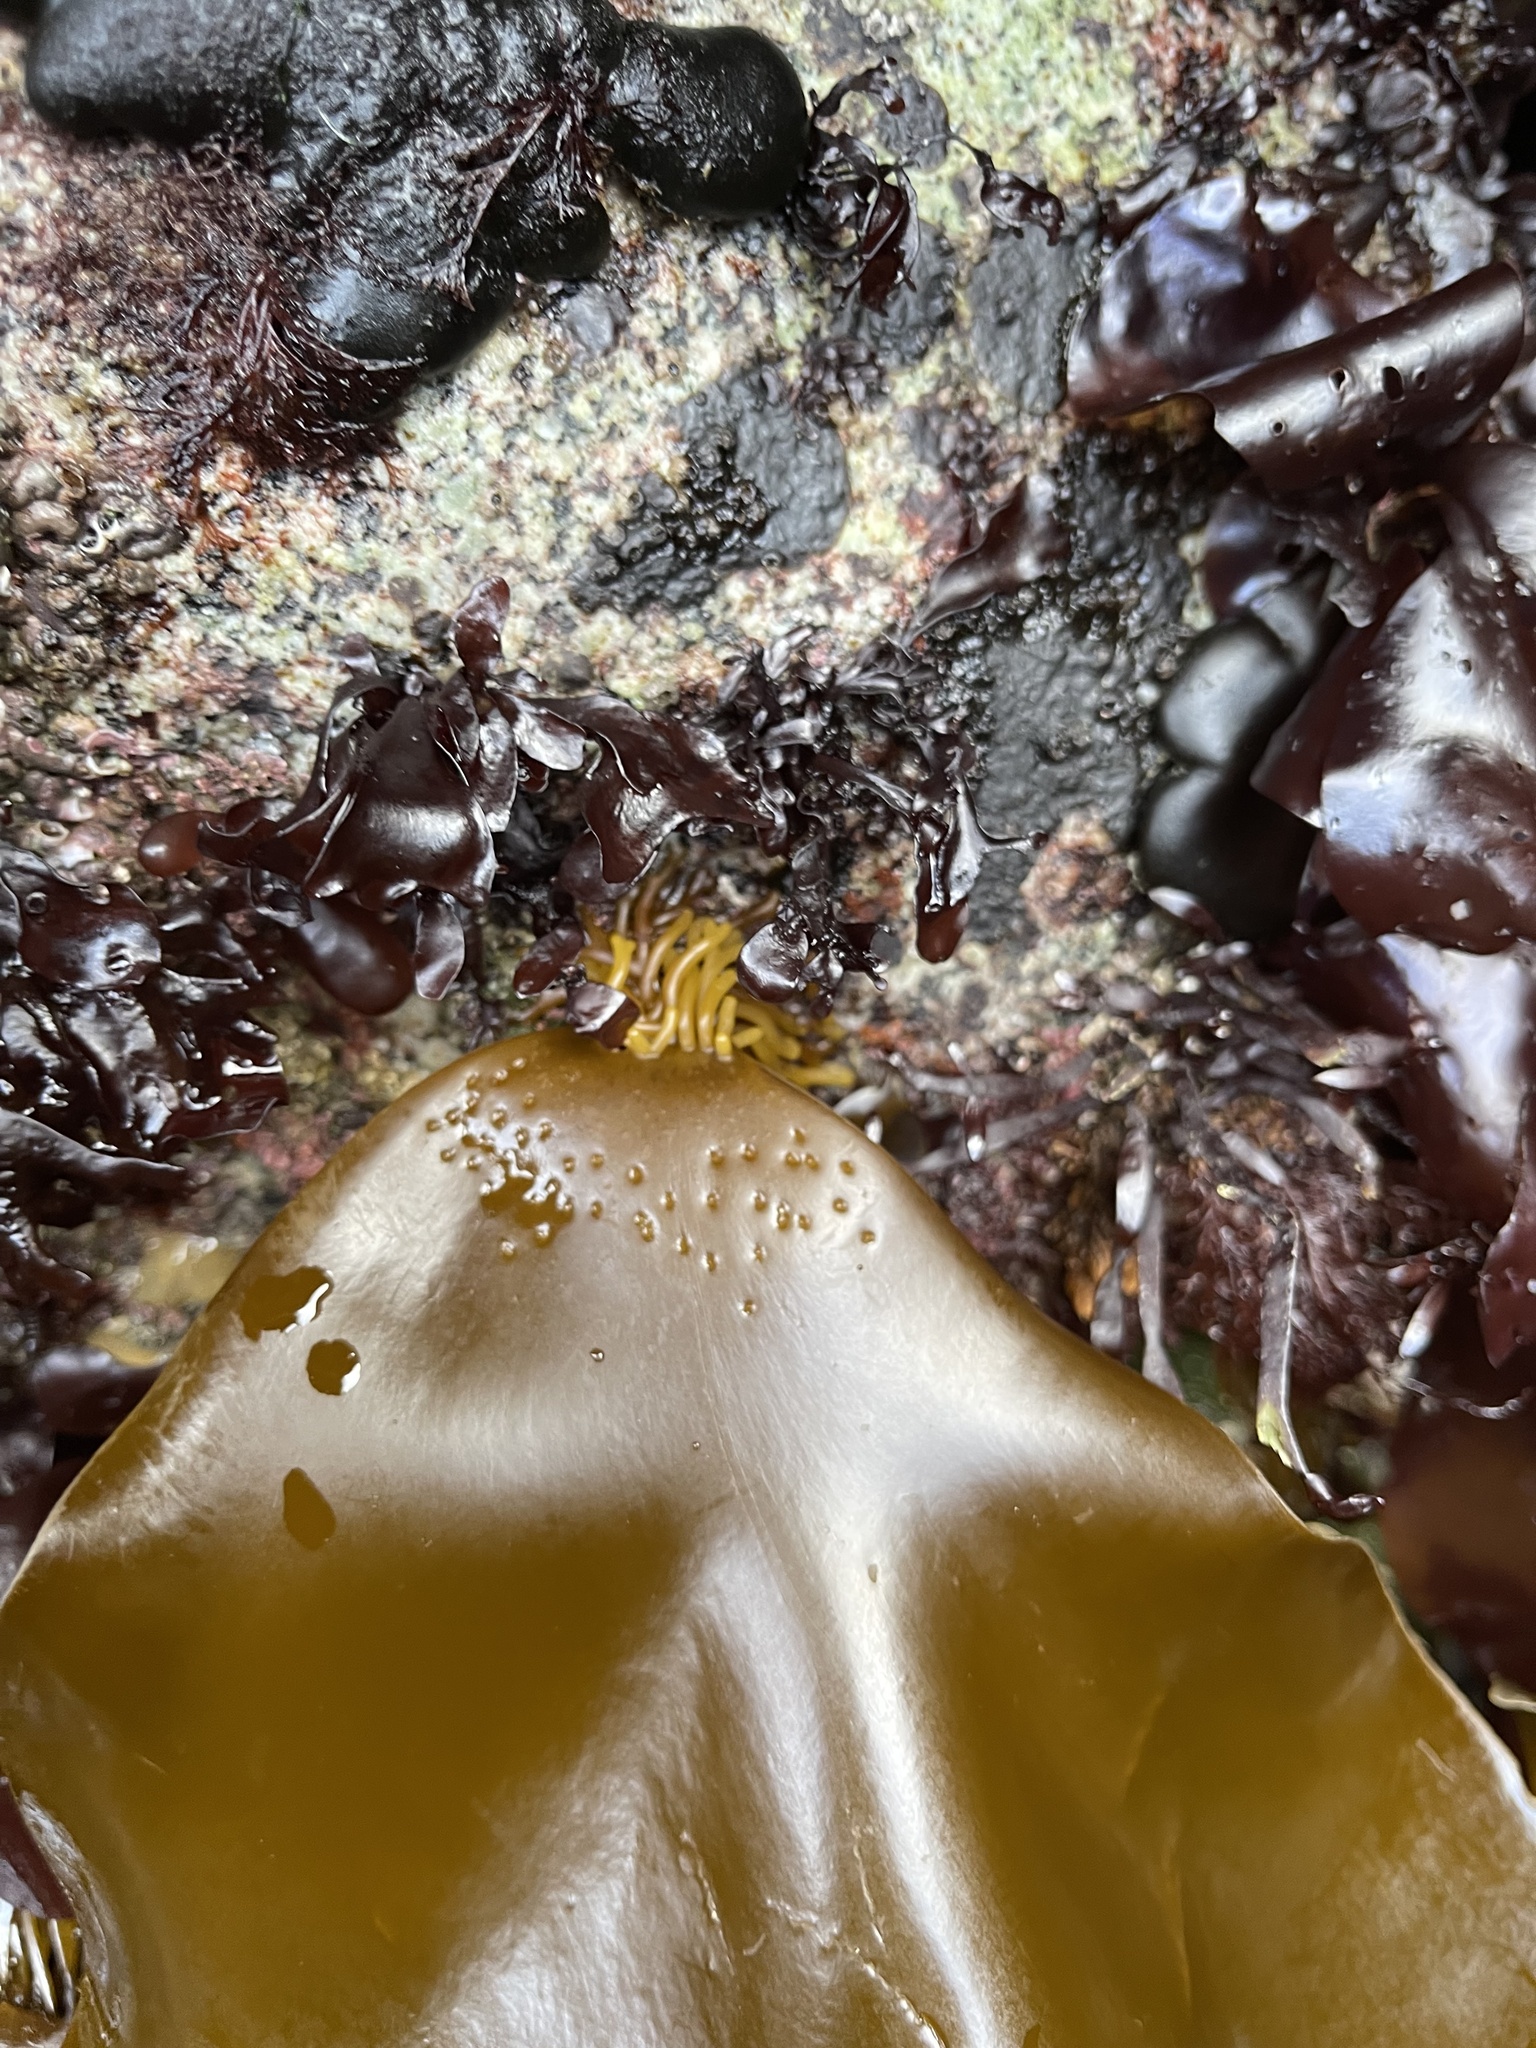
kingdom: Chromista
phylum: Ochrophyta
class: Phaeophyceae
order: Laminariales
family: Laminariaceae
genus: Hedophyllum
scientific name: Hedophyllum sessile
